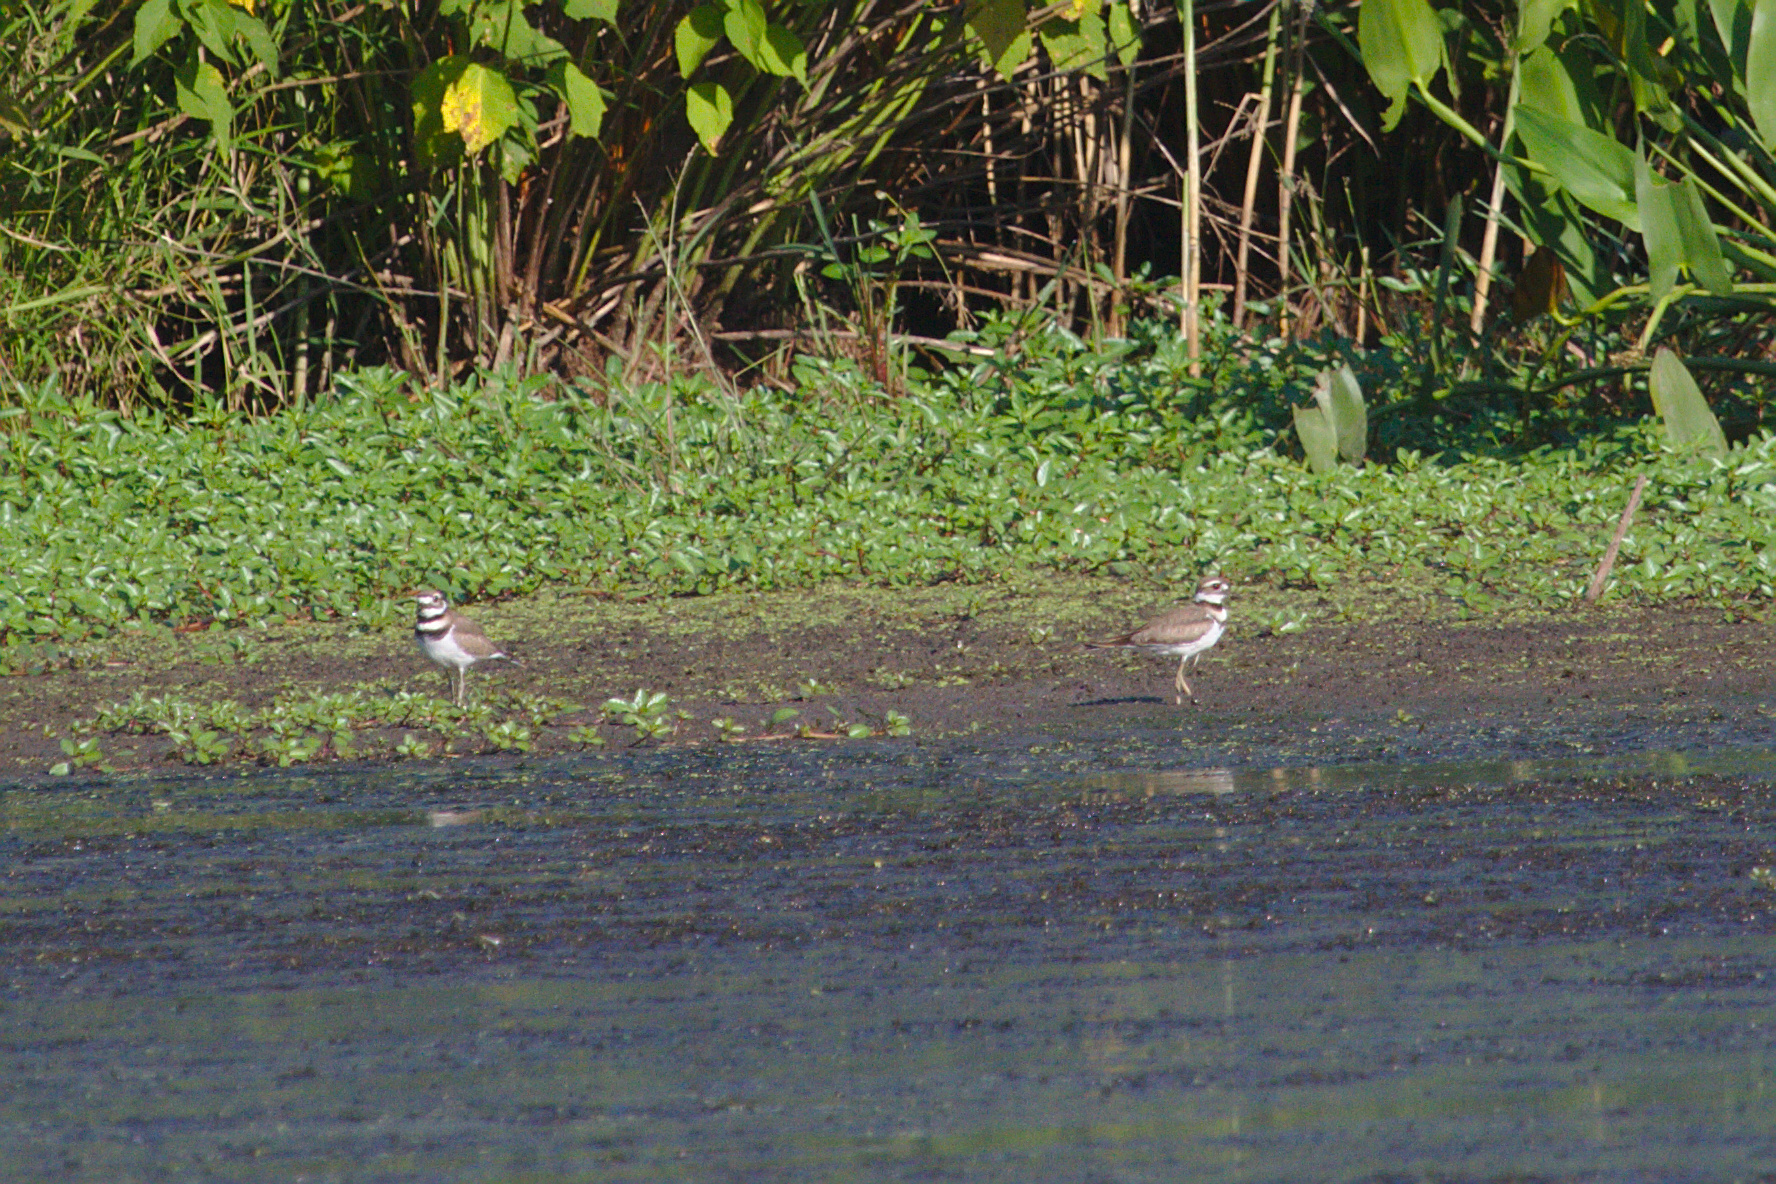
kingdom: Animalia
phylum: Chordata
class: Aves
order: Charadriiformes
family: Charadriidae
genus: Charadrius
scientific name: Charadrius vociferus
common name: Killdeer
